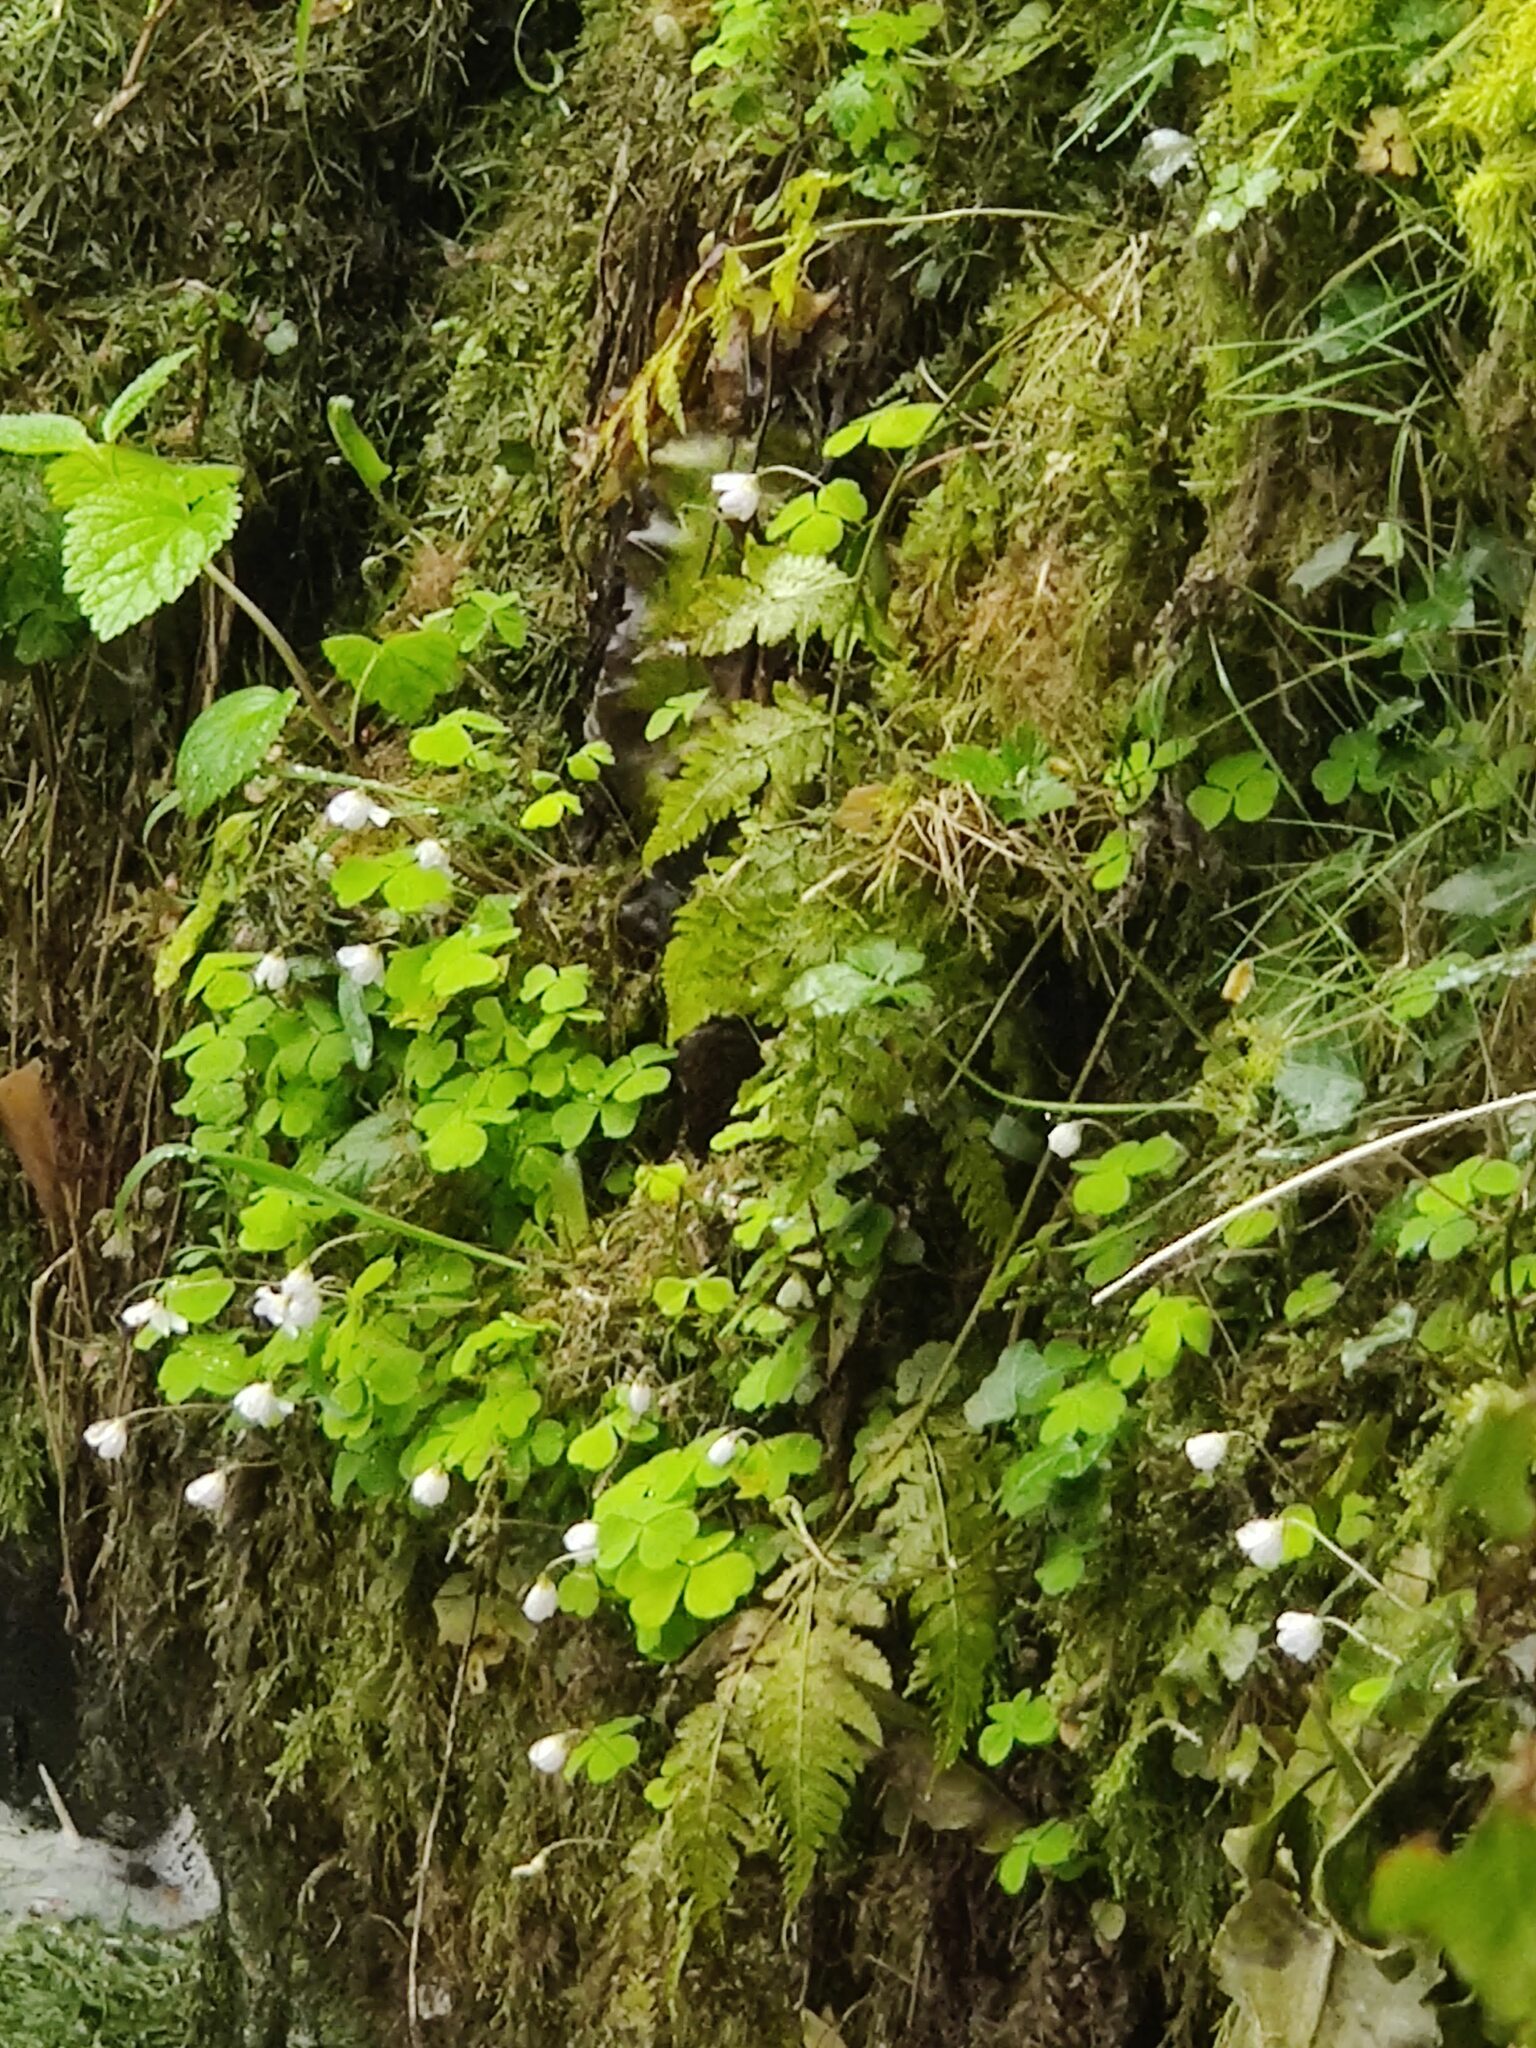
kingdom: Plantae
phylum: Tracheophyta
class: Magnoliopsida
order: Oxalidales
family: Oxalidaceae
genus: Oxalis
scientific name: Oxalis acetosella
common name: Wood-sorrel
